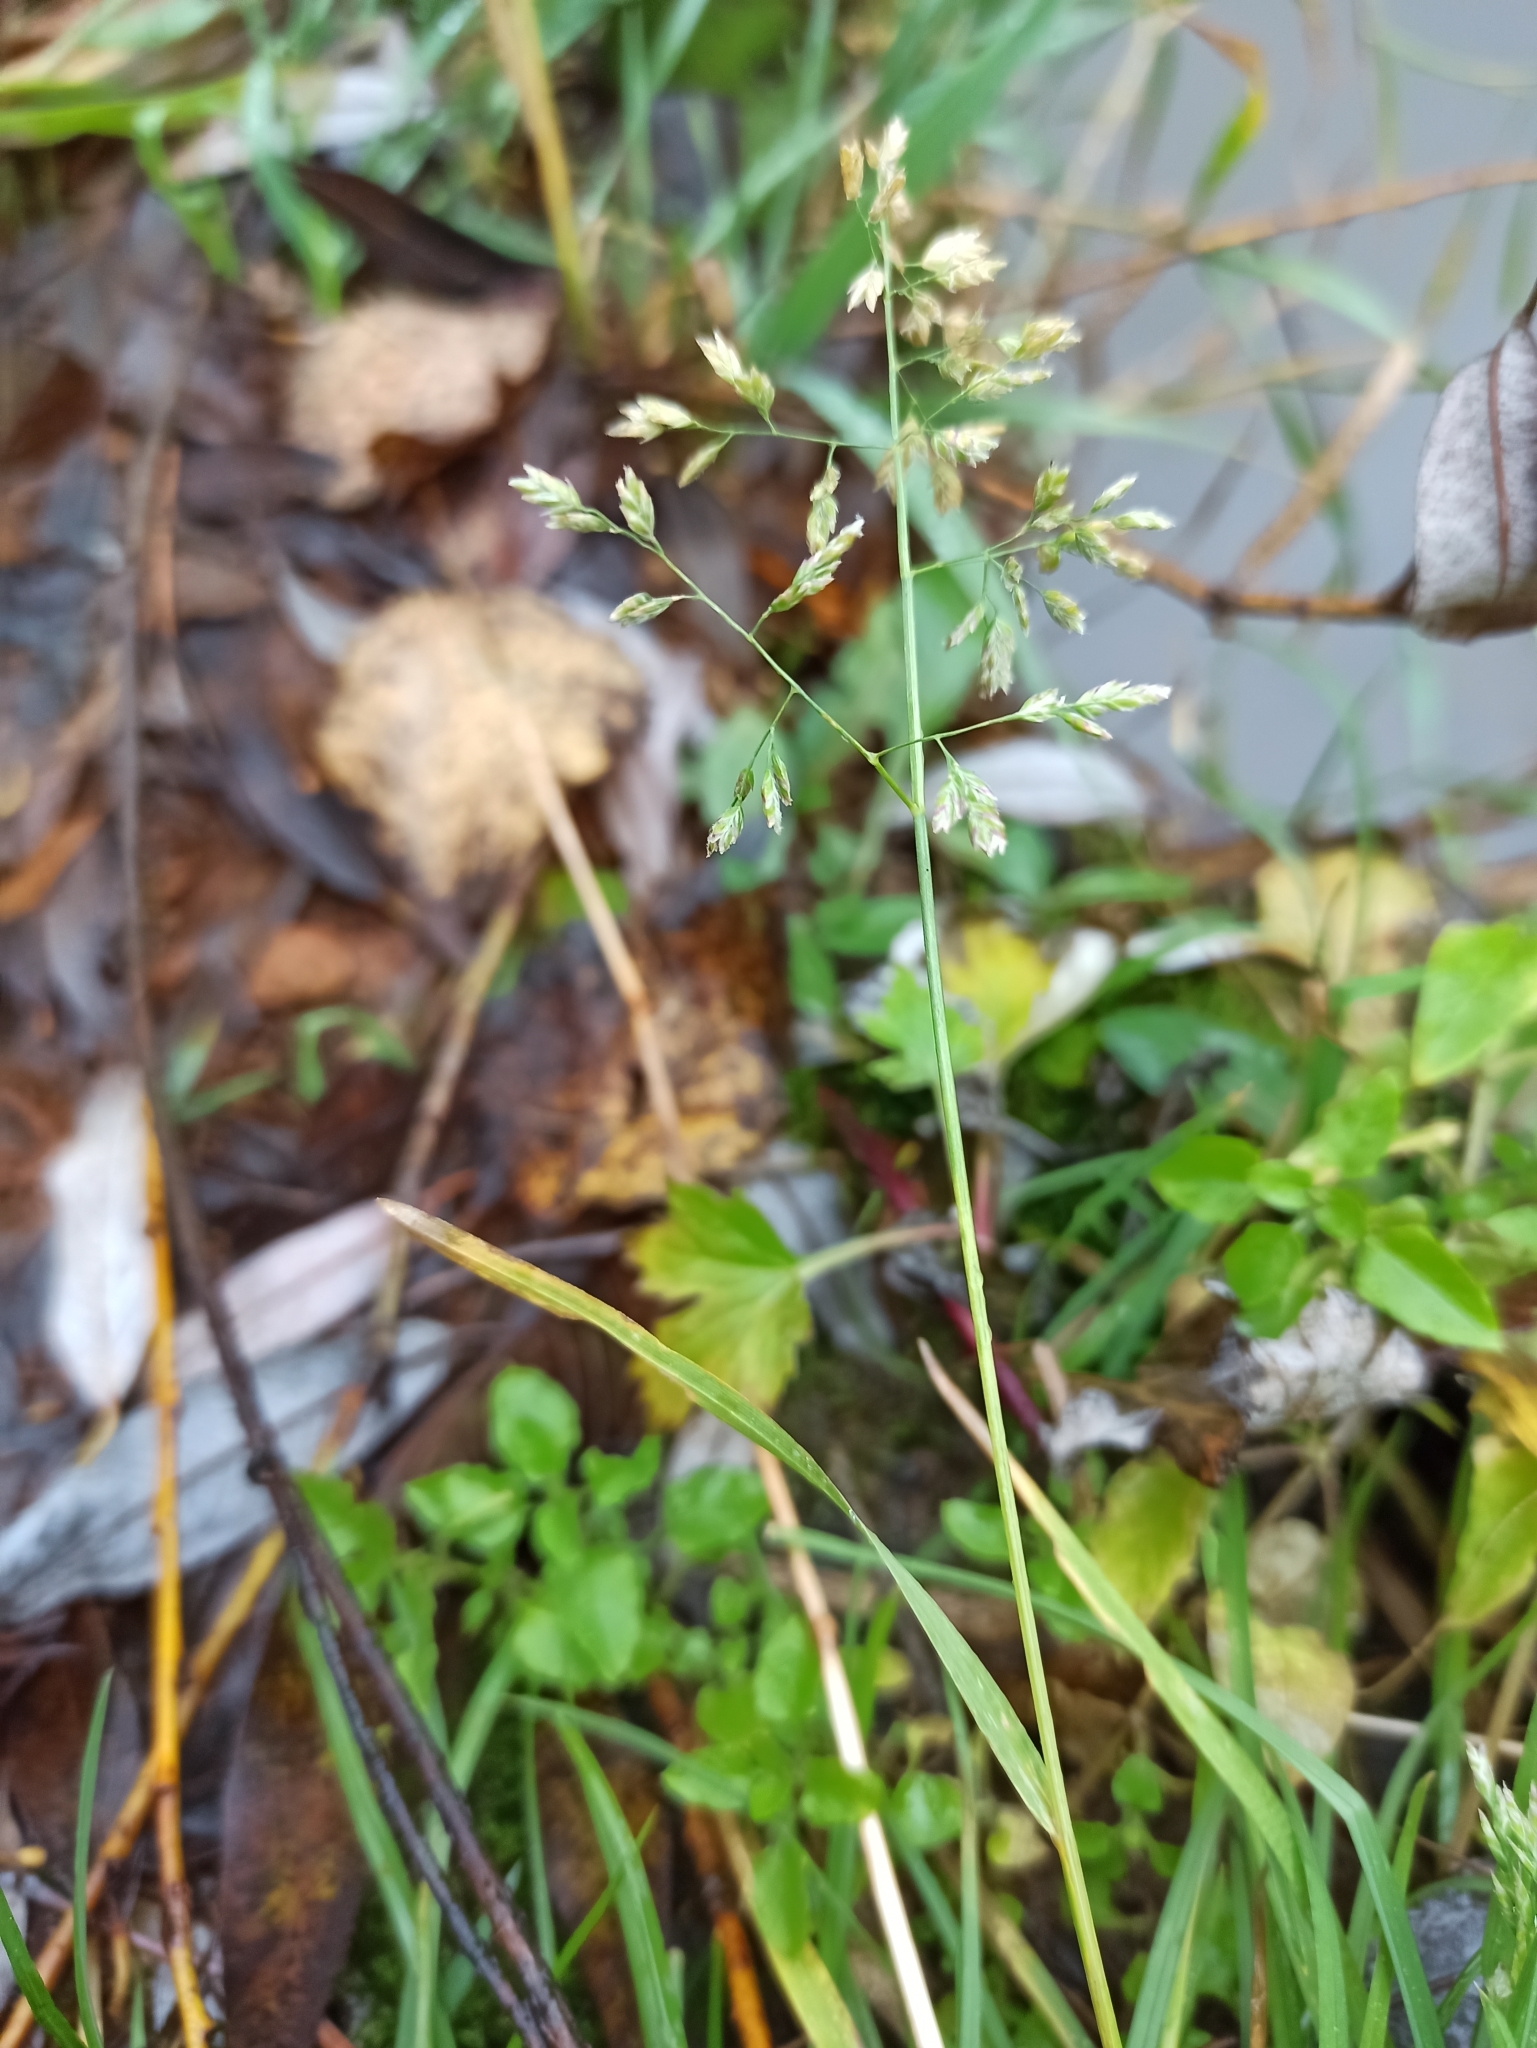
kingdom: Plantae
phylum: Tracheophyta
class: Liliopsida
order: Poales
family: Poaceae
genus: Poa
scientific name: Poa annua
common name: Annual bluegrass
